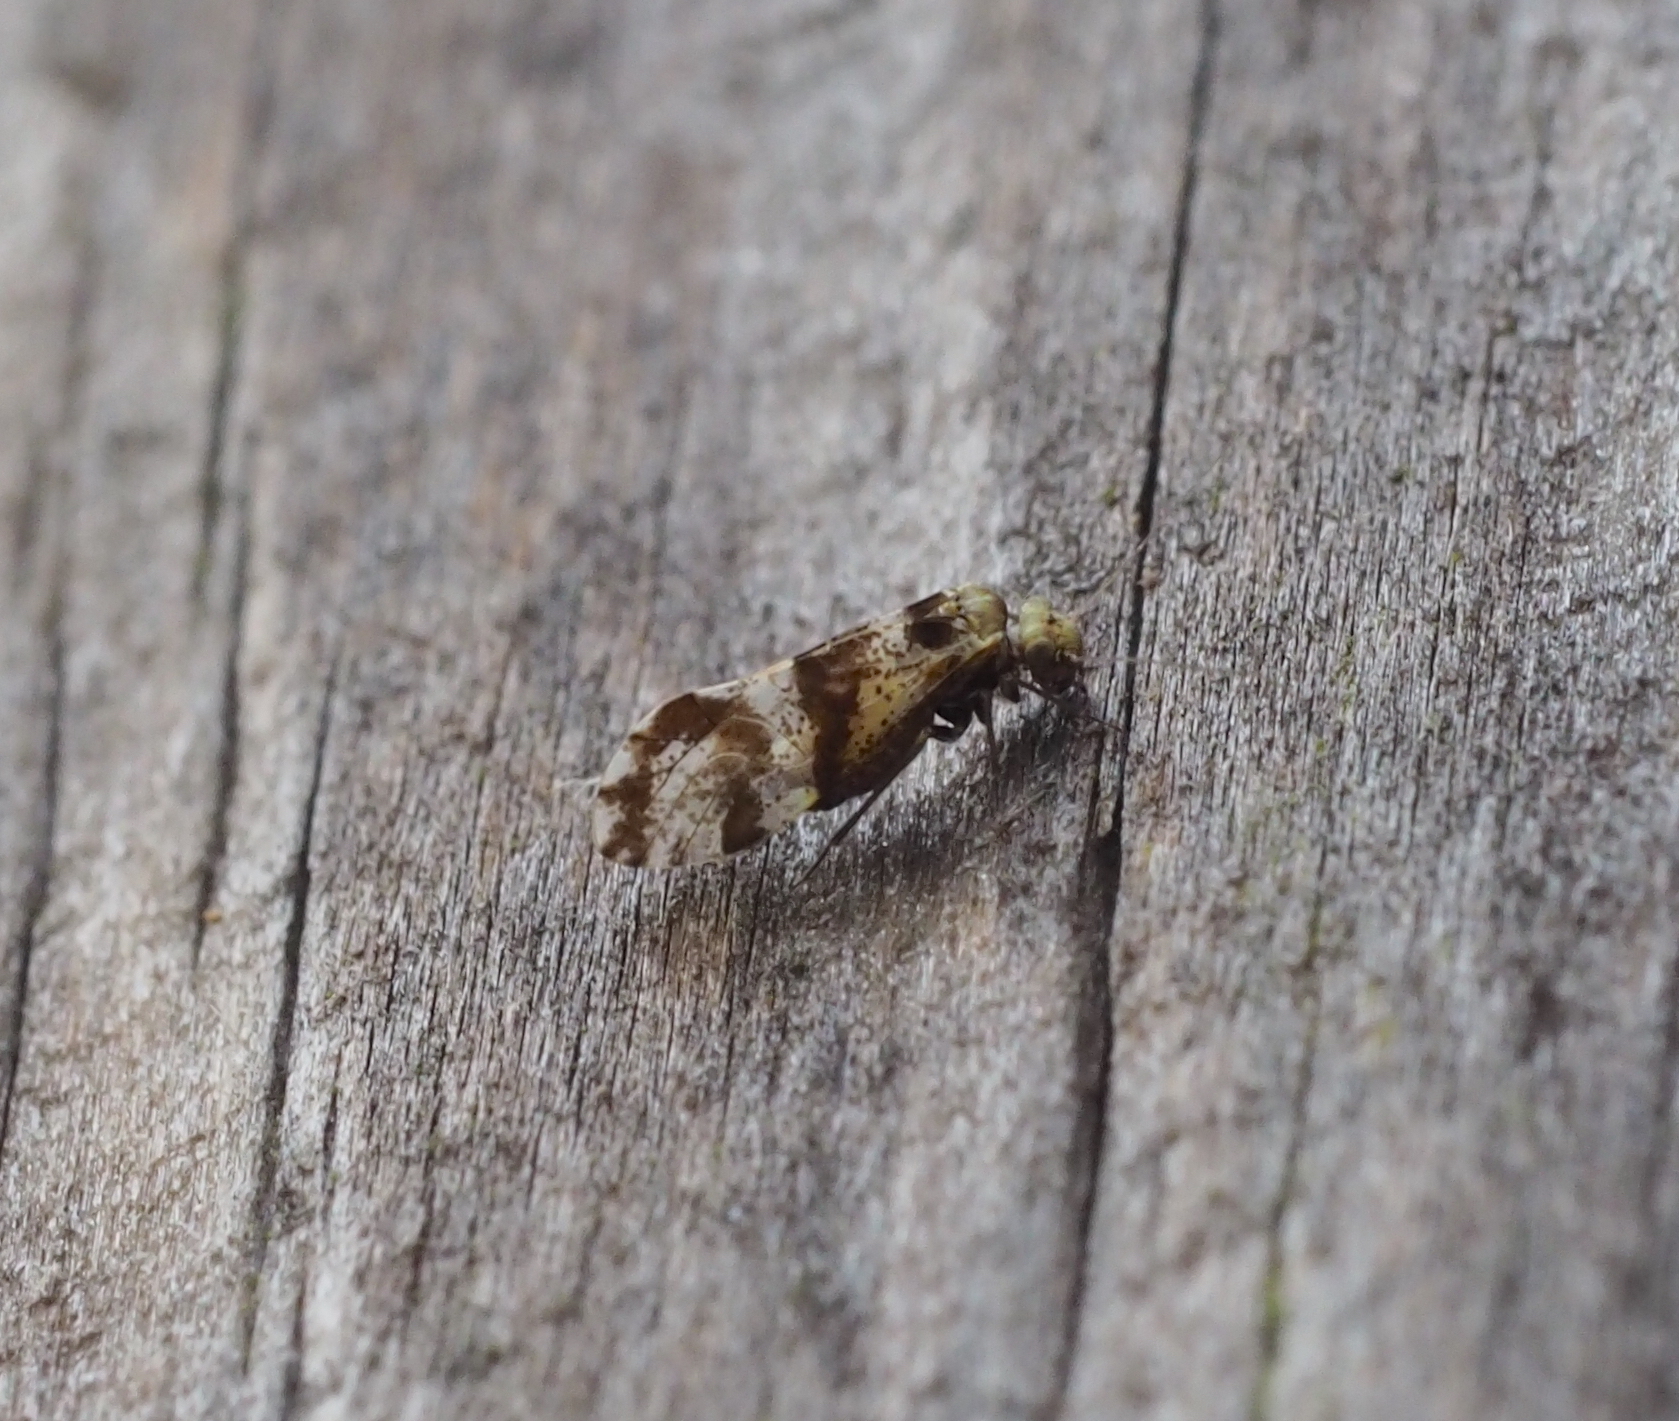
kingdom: Animalia
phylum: Arthropoda
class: Insecta
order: Psocodea
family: Psocidae
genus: Loensia
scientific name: Loensia fasciata
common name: Common bark louse
